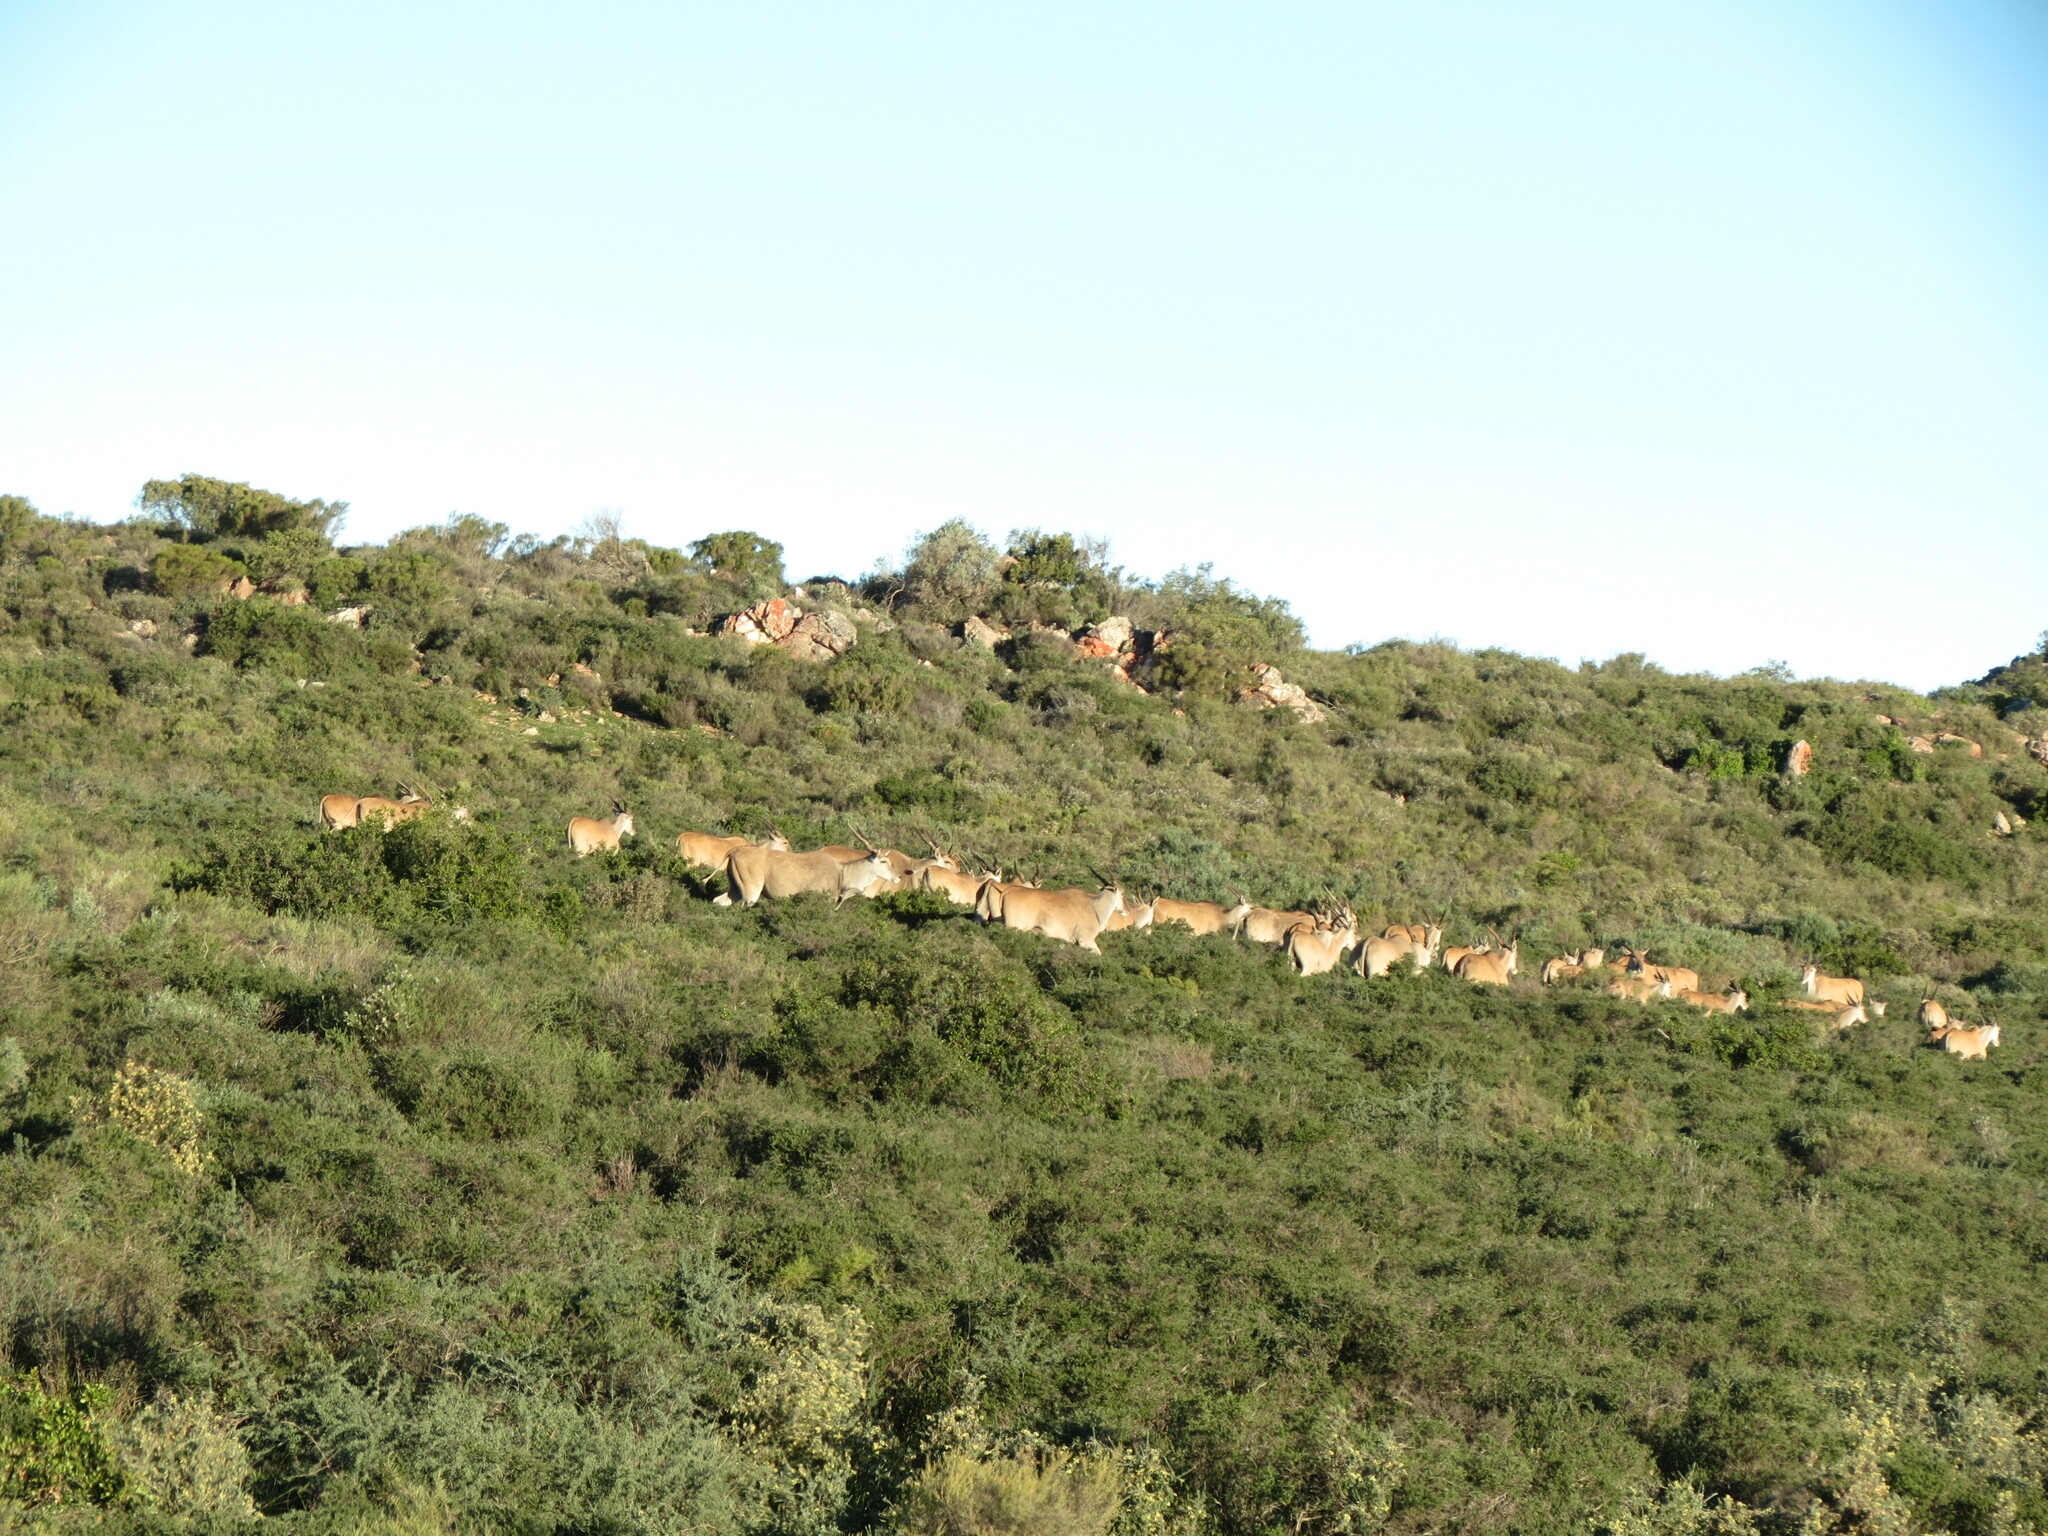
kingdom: Animalia
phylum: Chordata
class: Mammalia
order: Artiodactyla
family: Bovidae
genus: Taurotragus
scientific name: Taurotragus oryx
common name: Common eland
